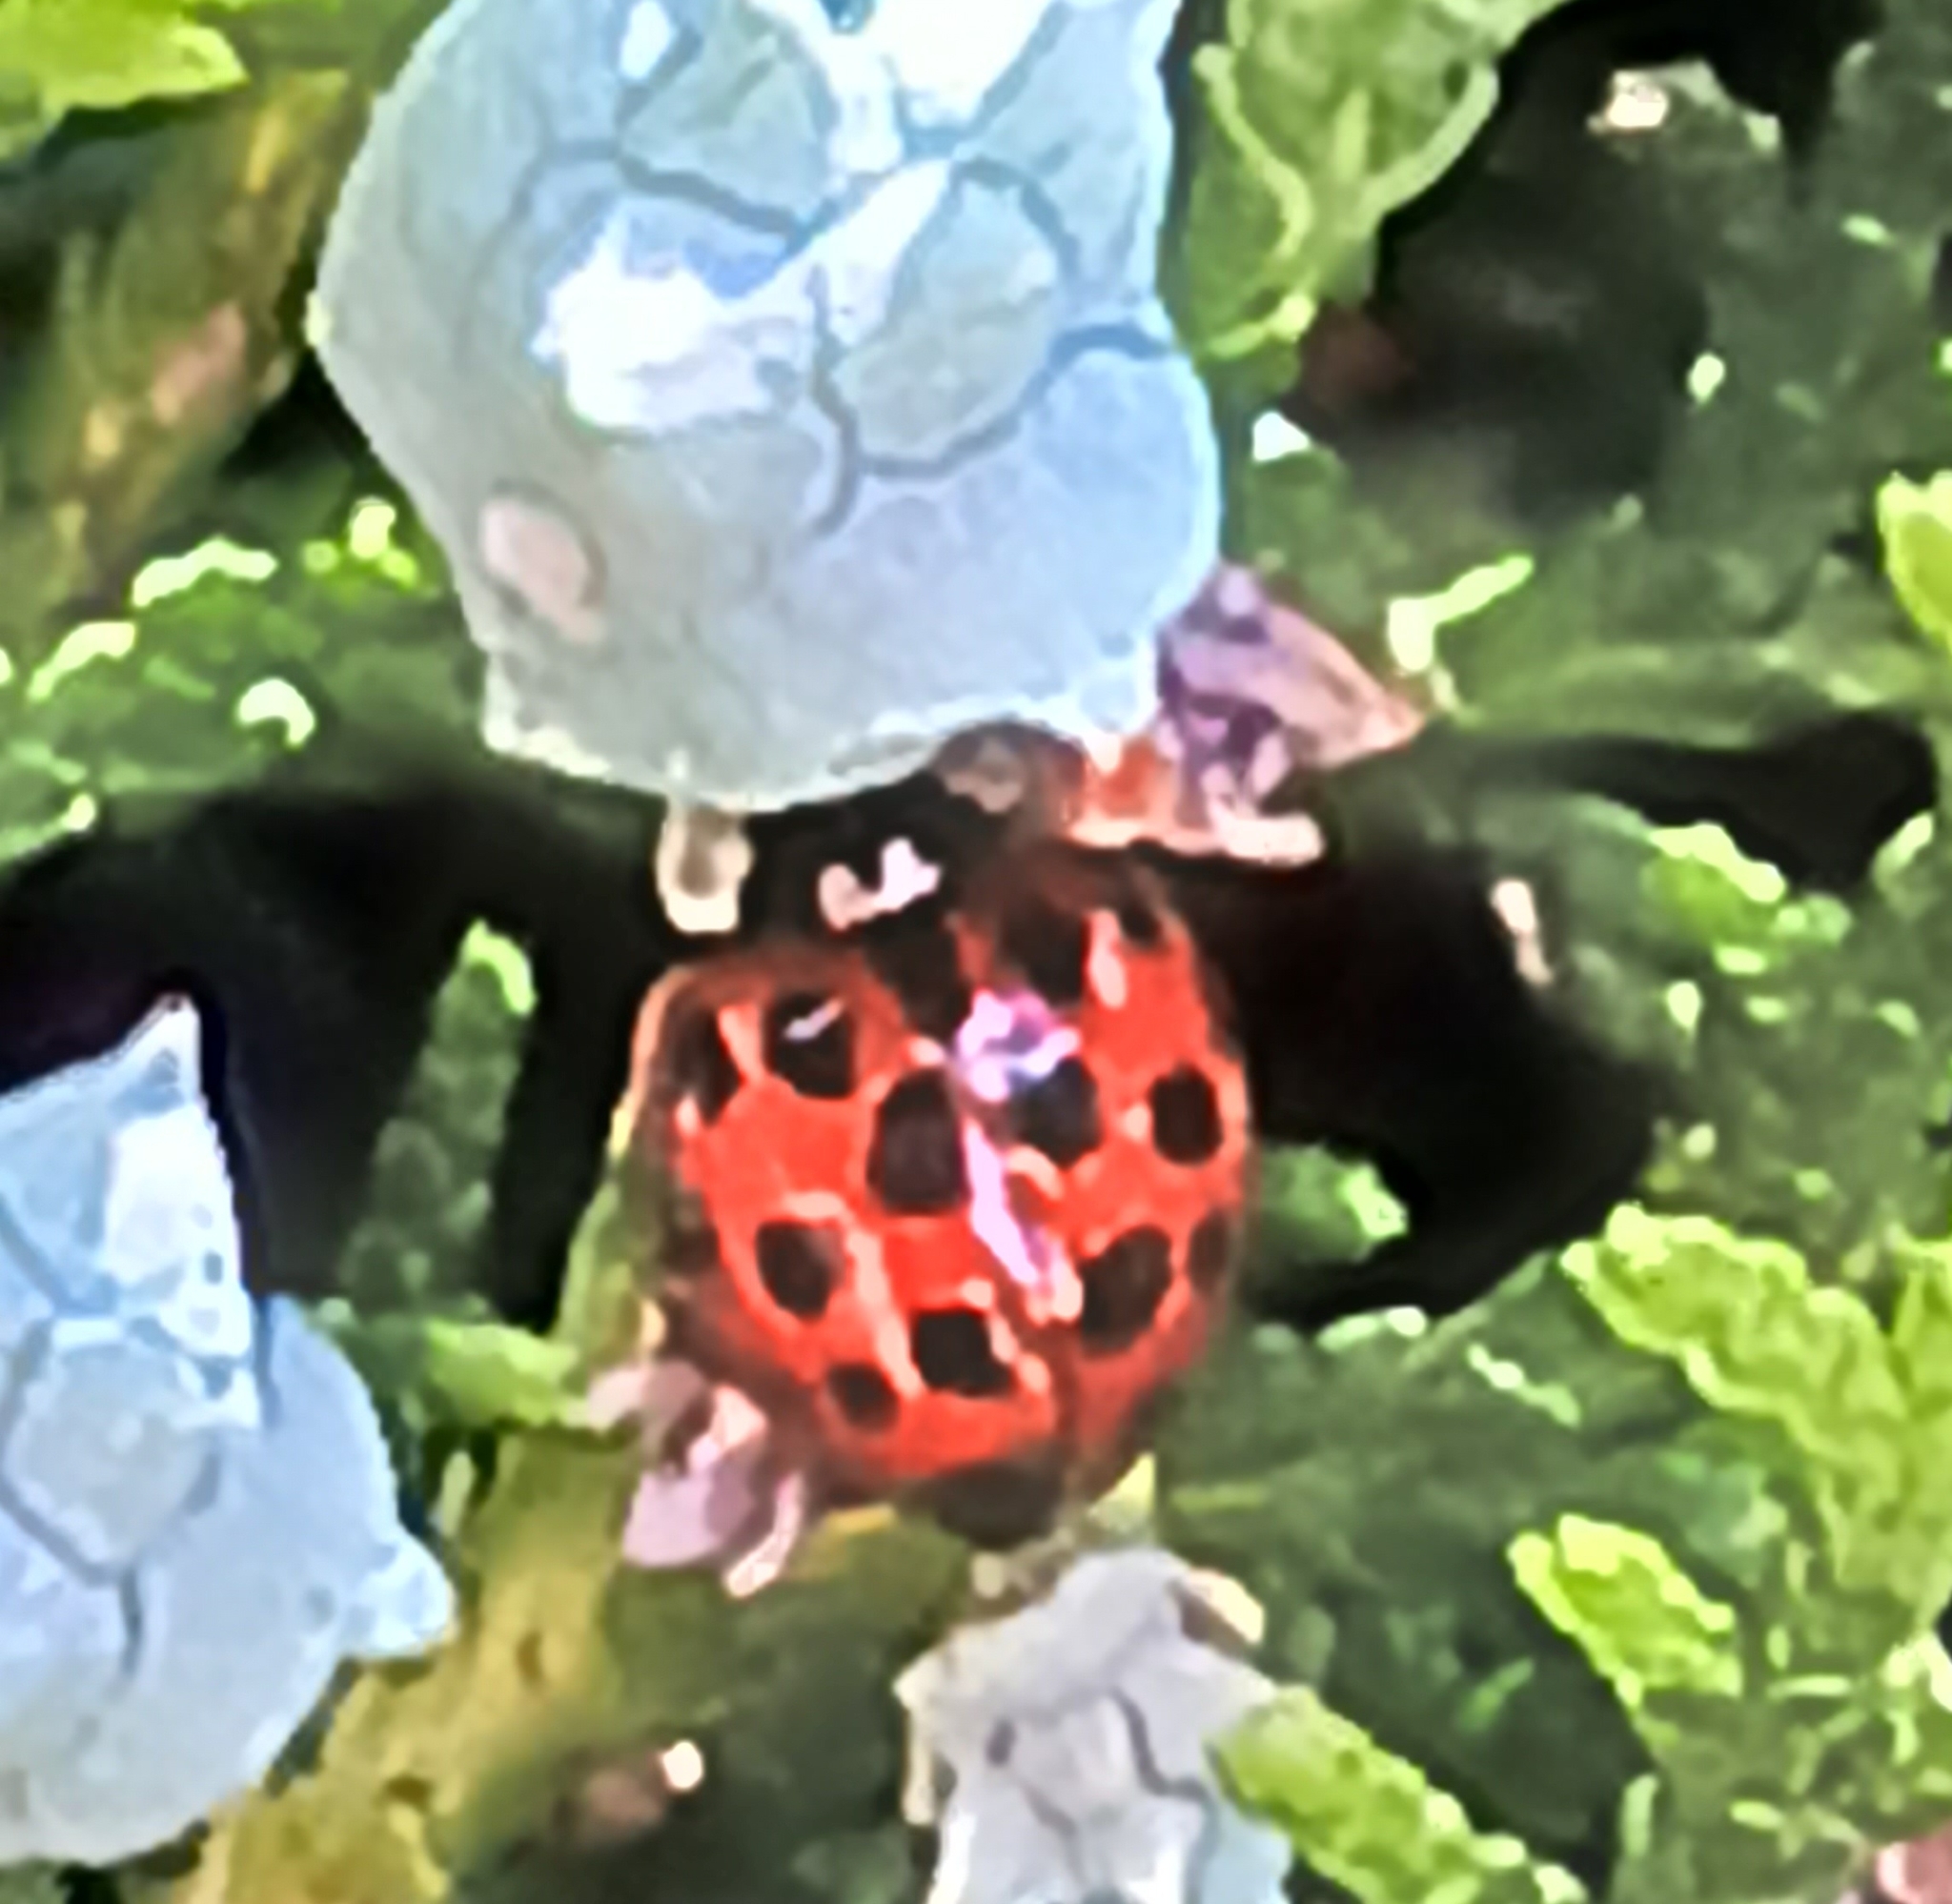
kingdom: Animalia
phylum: Arthropoda
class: Insecta
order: Coleoptera
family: Coccinellidae
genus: Harmonia
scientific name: Harmonia axyridis
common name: Harlequin ladybird
